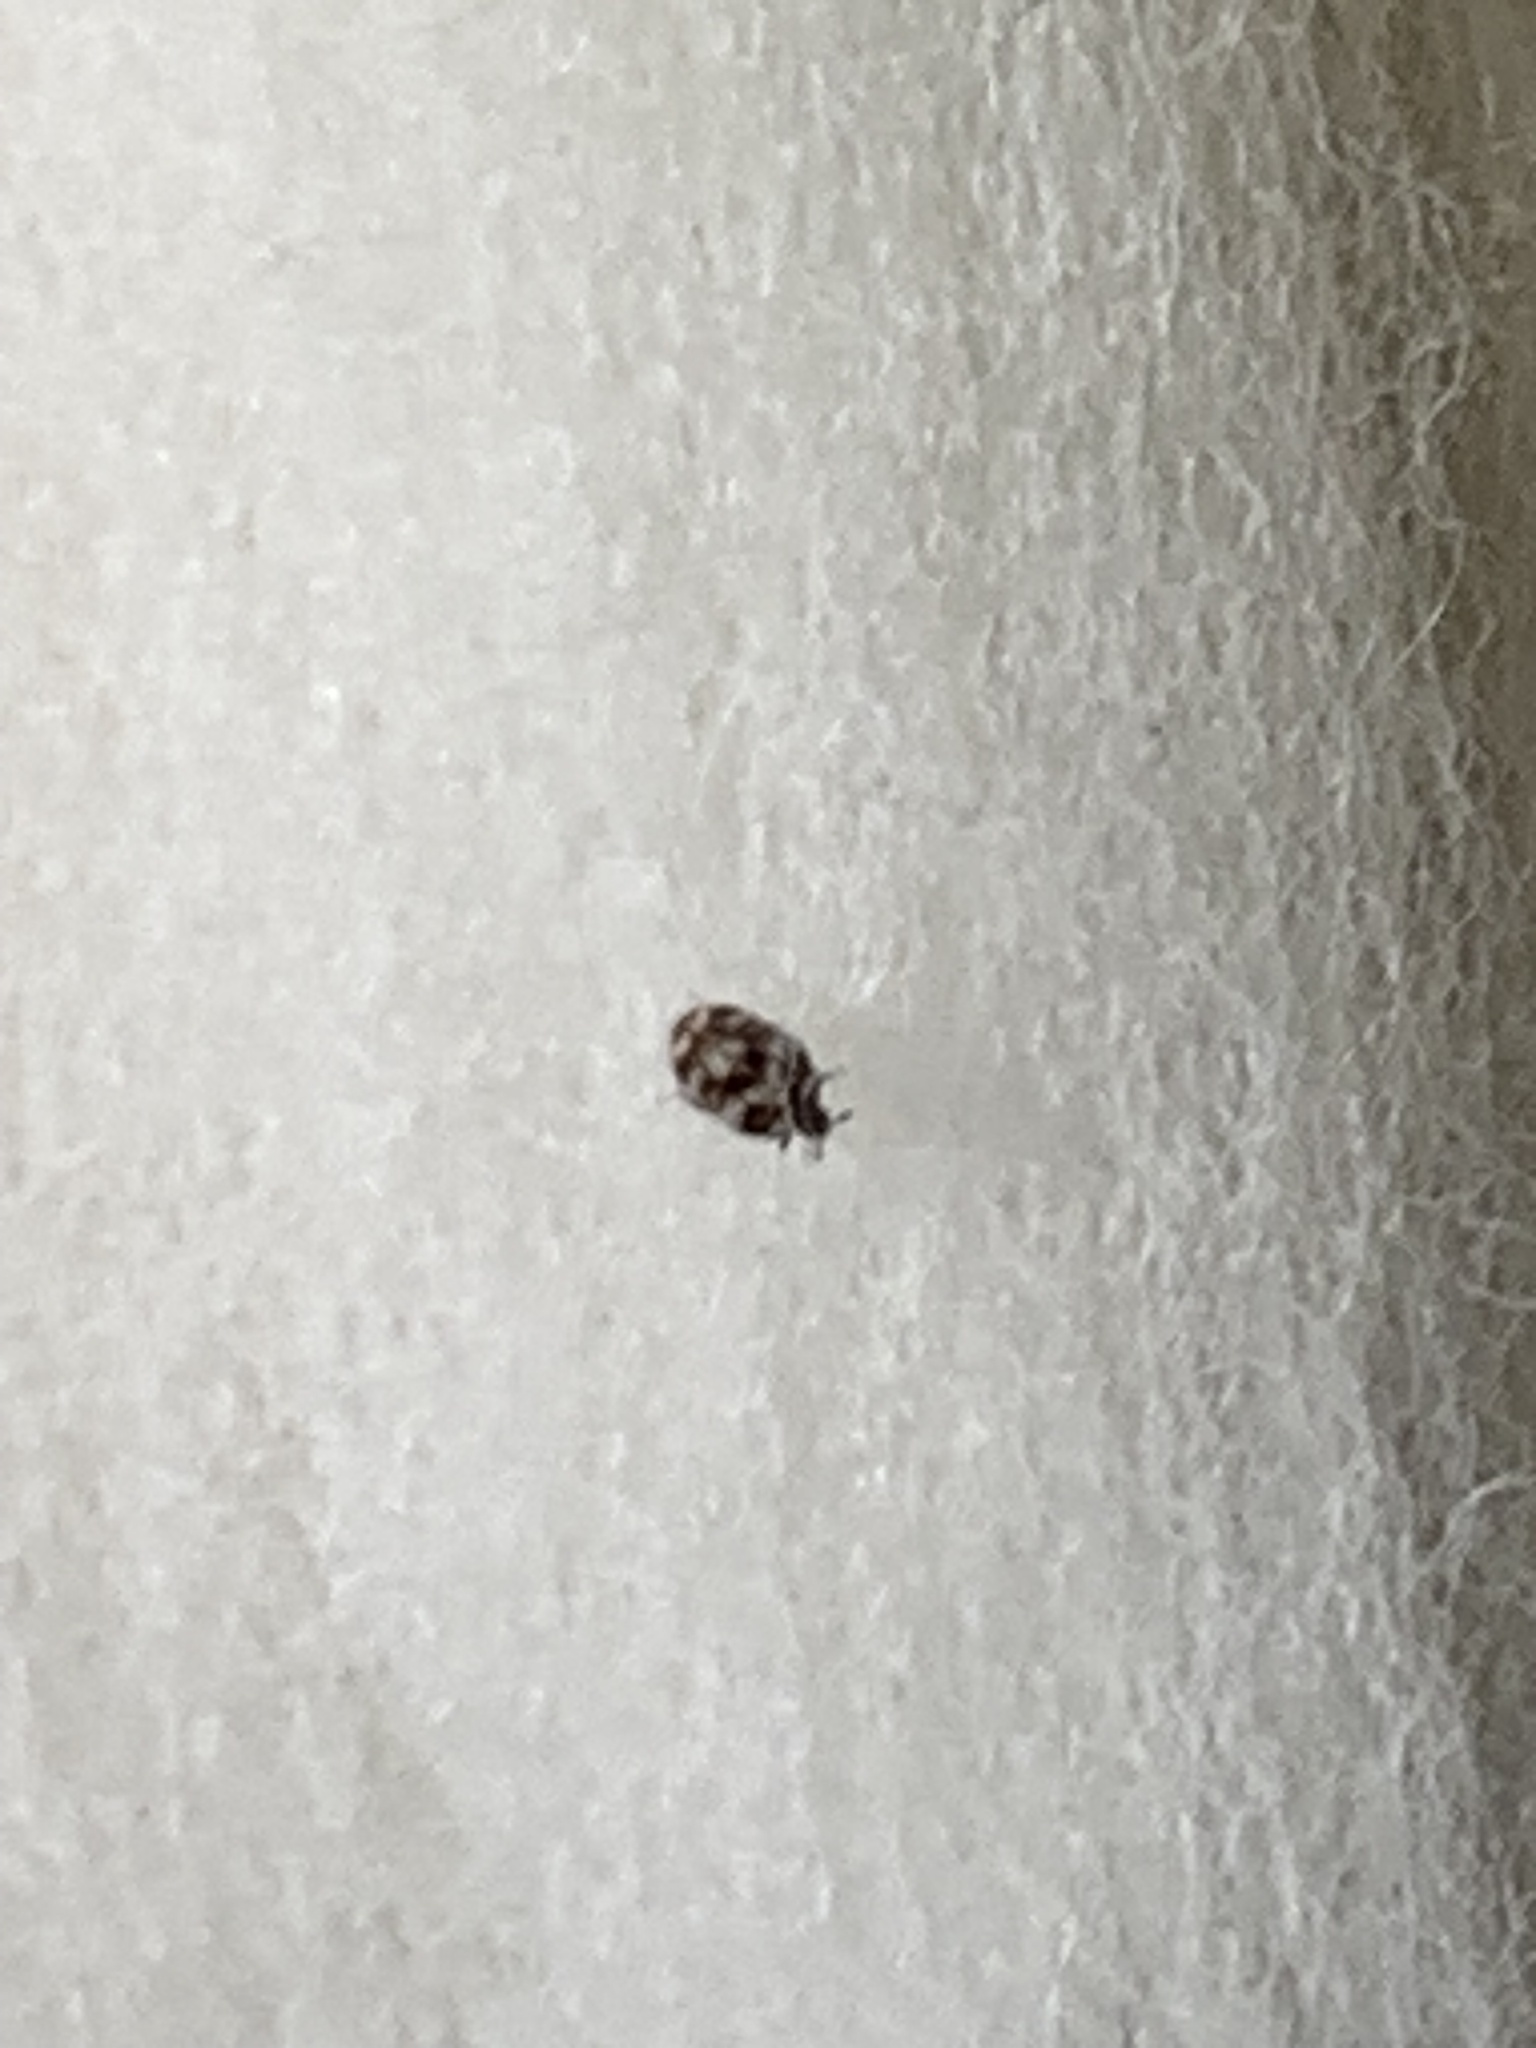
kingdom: Animalia
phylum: Arthropoda
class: Insecta
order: Coleoptera
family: Dermestidae
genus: Anthrenus
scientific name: Anthrenus verbasci
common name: Varied carpet beetle
